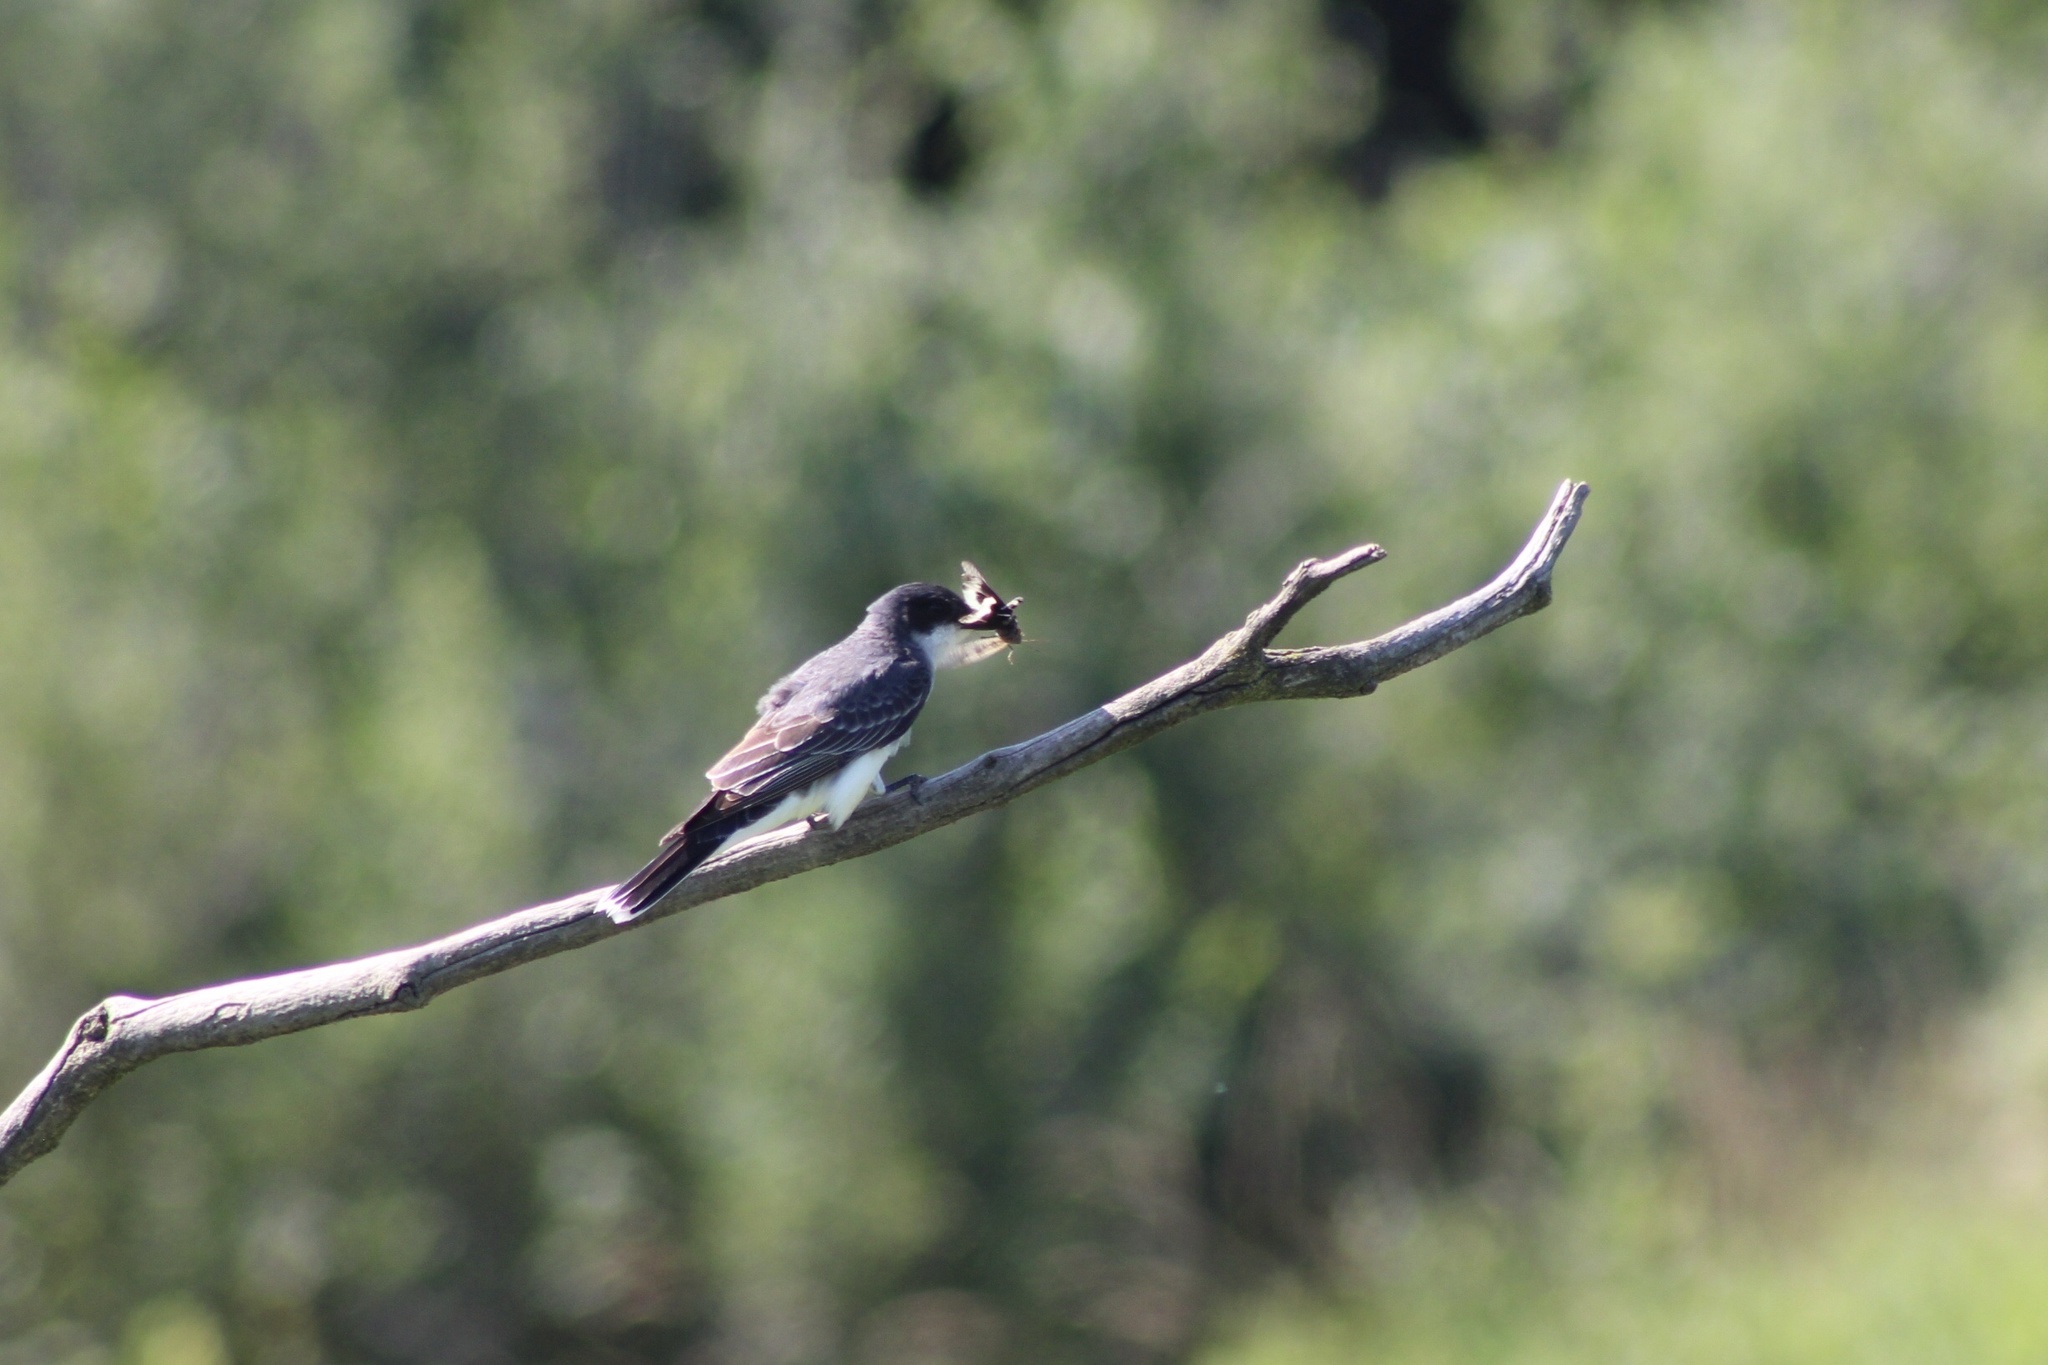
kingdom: Animalia
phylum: Chordata
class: Aves
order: Passeriformes
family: Tyrannidae
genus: Tyrannus
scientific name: Tyrannus tyrannus
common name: Eastern kingbird
